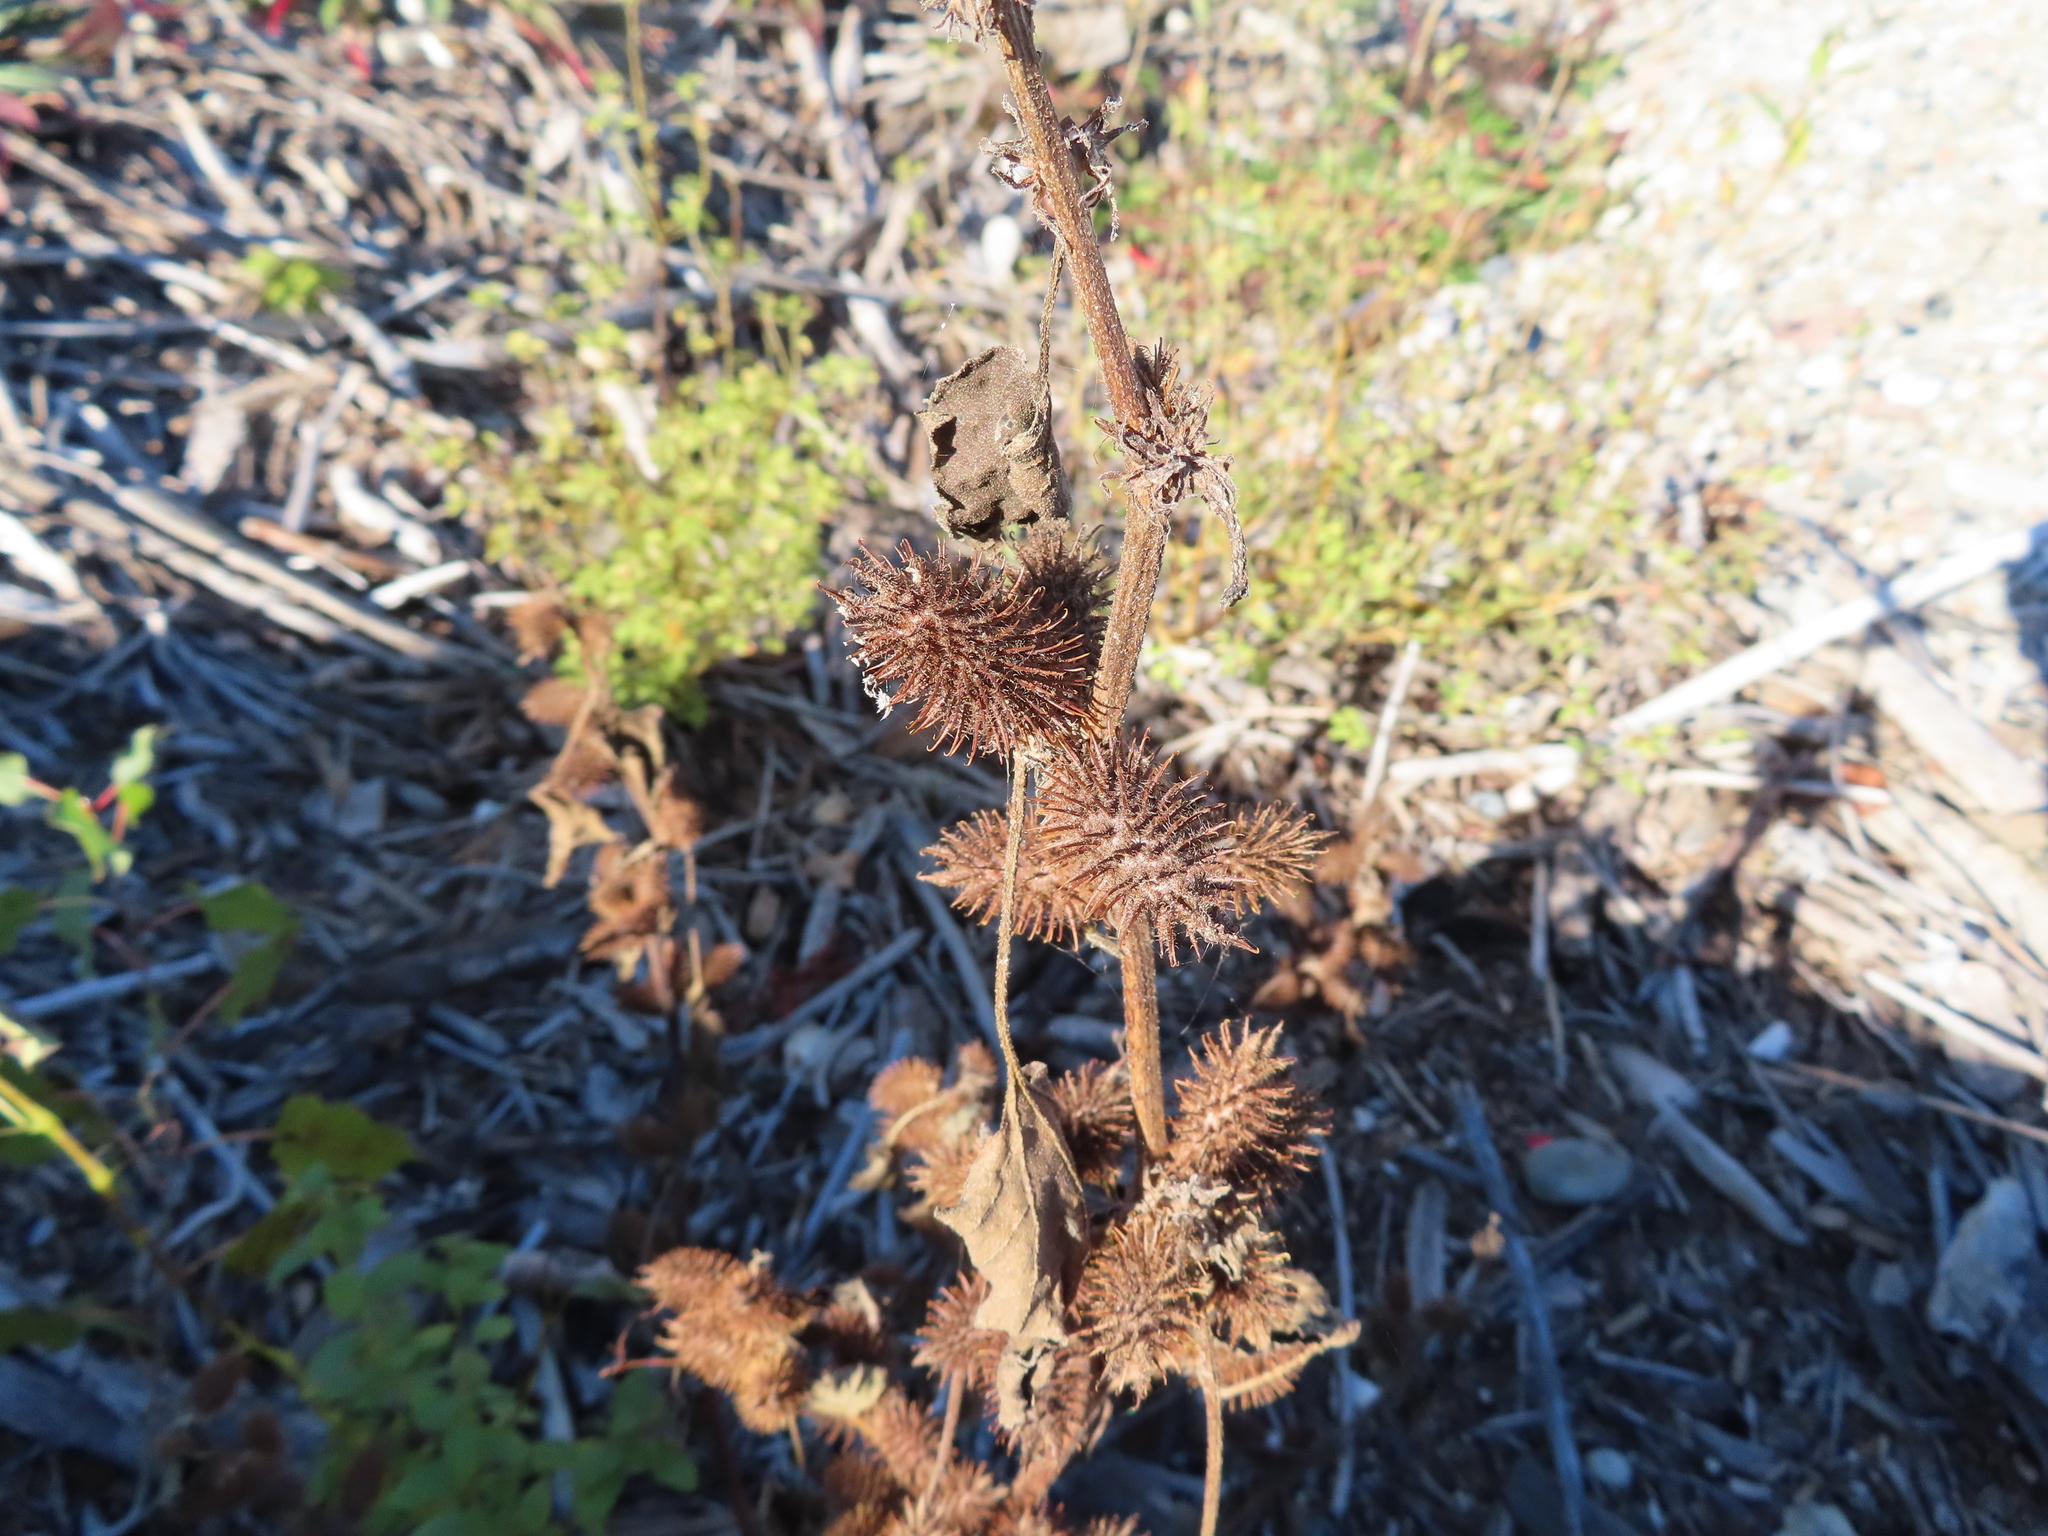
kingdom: Plantae
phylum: Tracheophyta
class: Magnoliopsida
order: Asterales
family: Asteraceae
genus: Xanthium
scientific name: Xanthium strumarium
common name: Rough cocklebur
